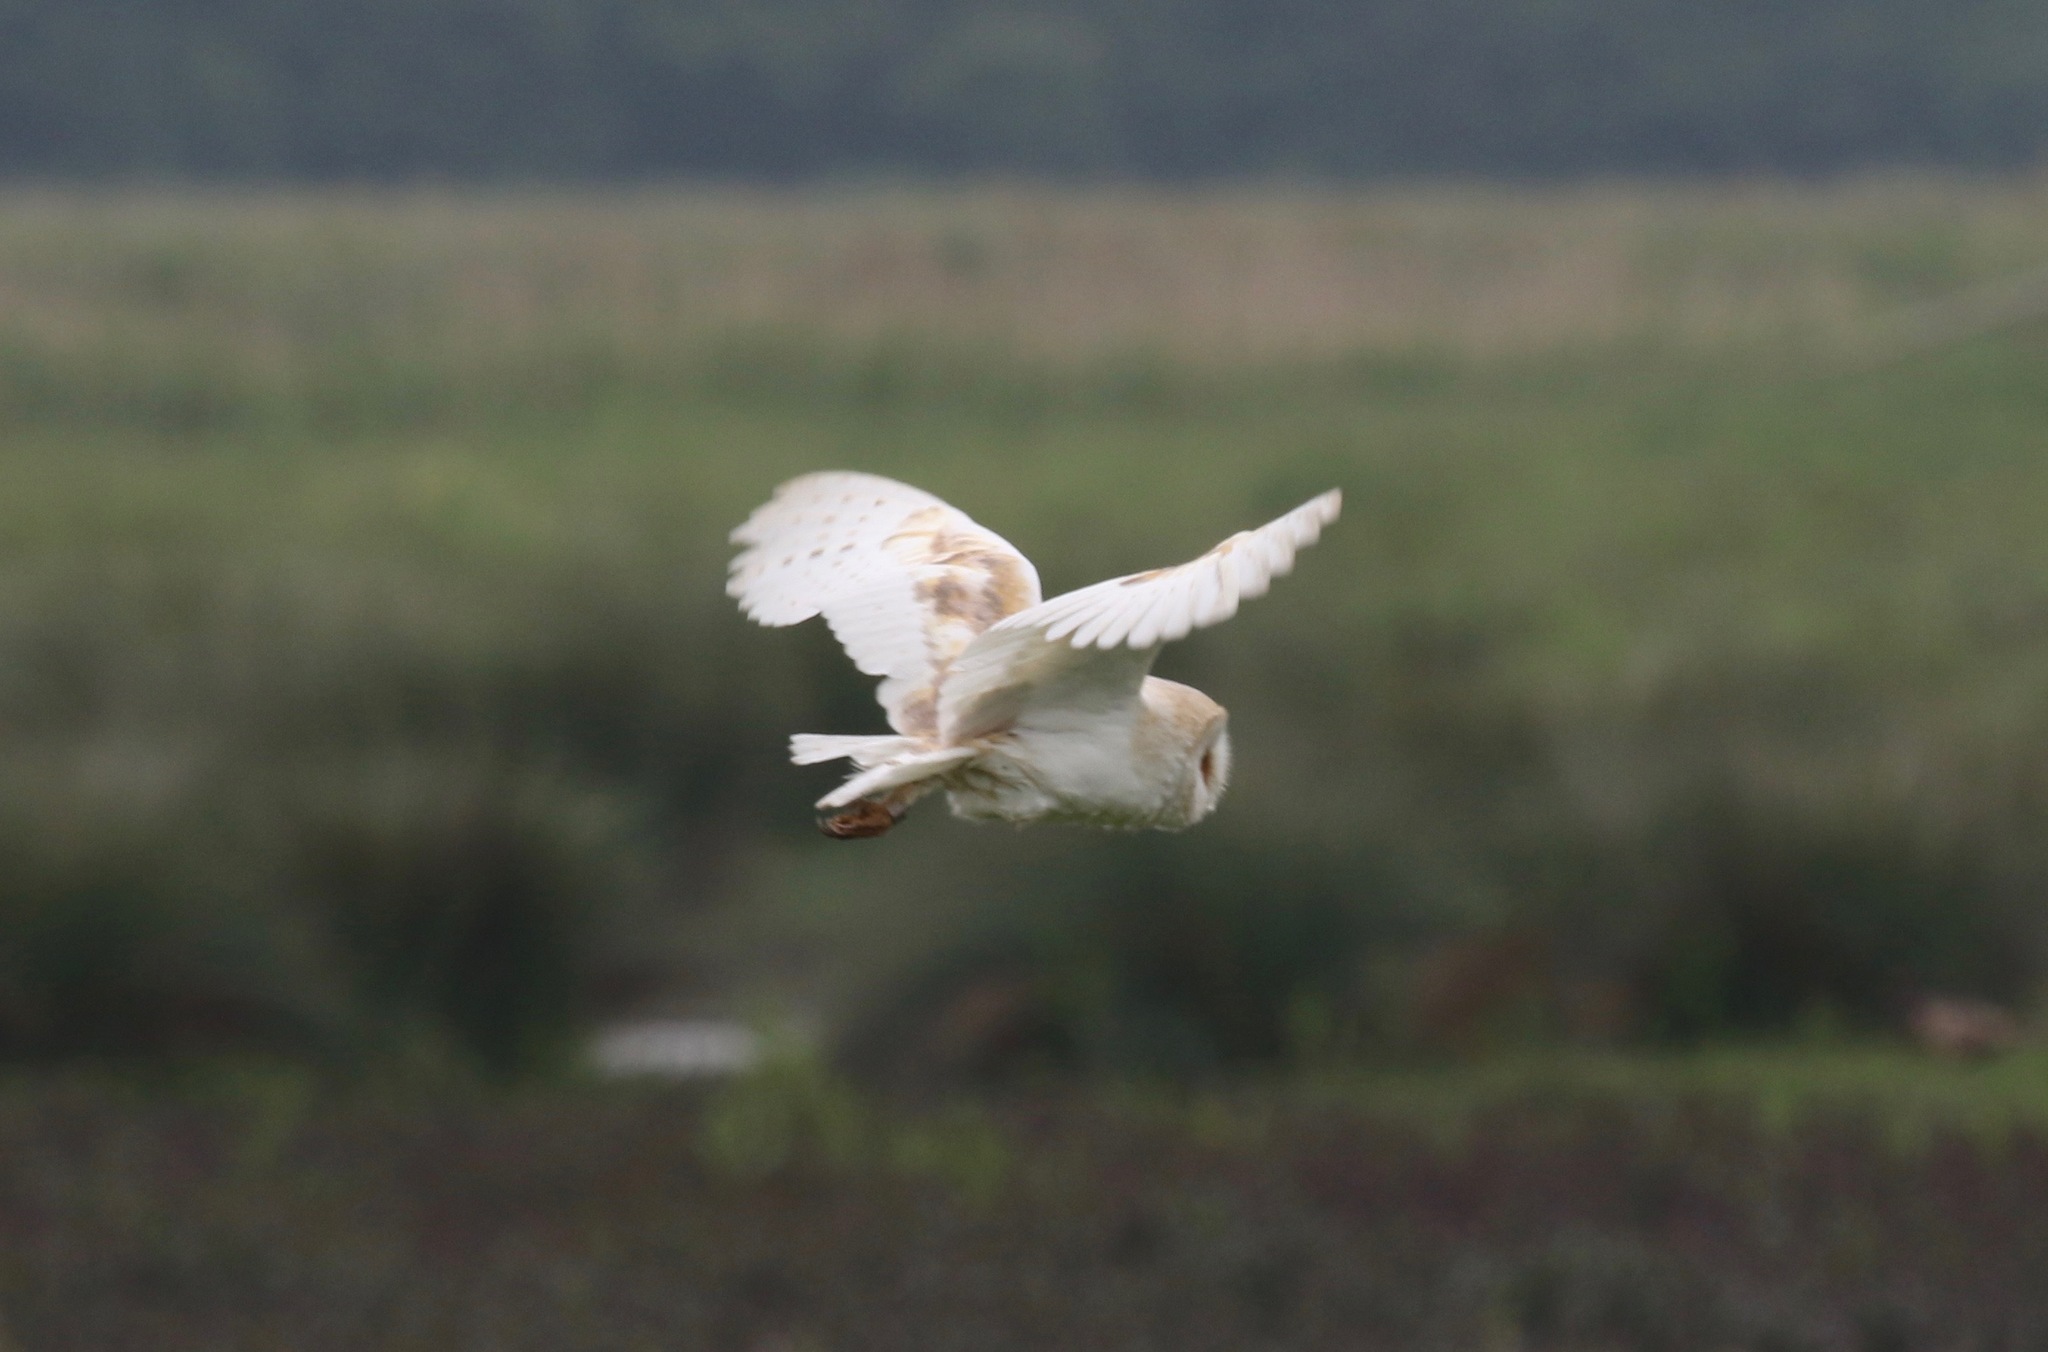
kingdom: Animalia
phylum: Chordata
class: Aves
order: Strigiformes
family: Tytonidae
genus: Tyto
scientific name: Tyto alba
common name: Barn owl
